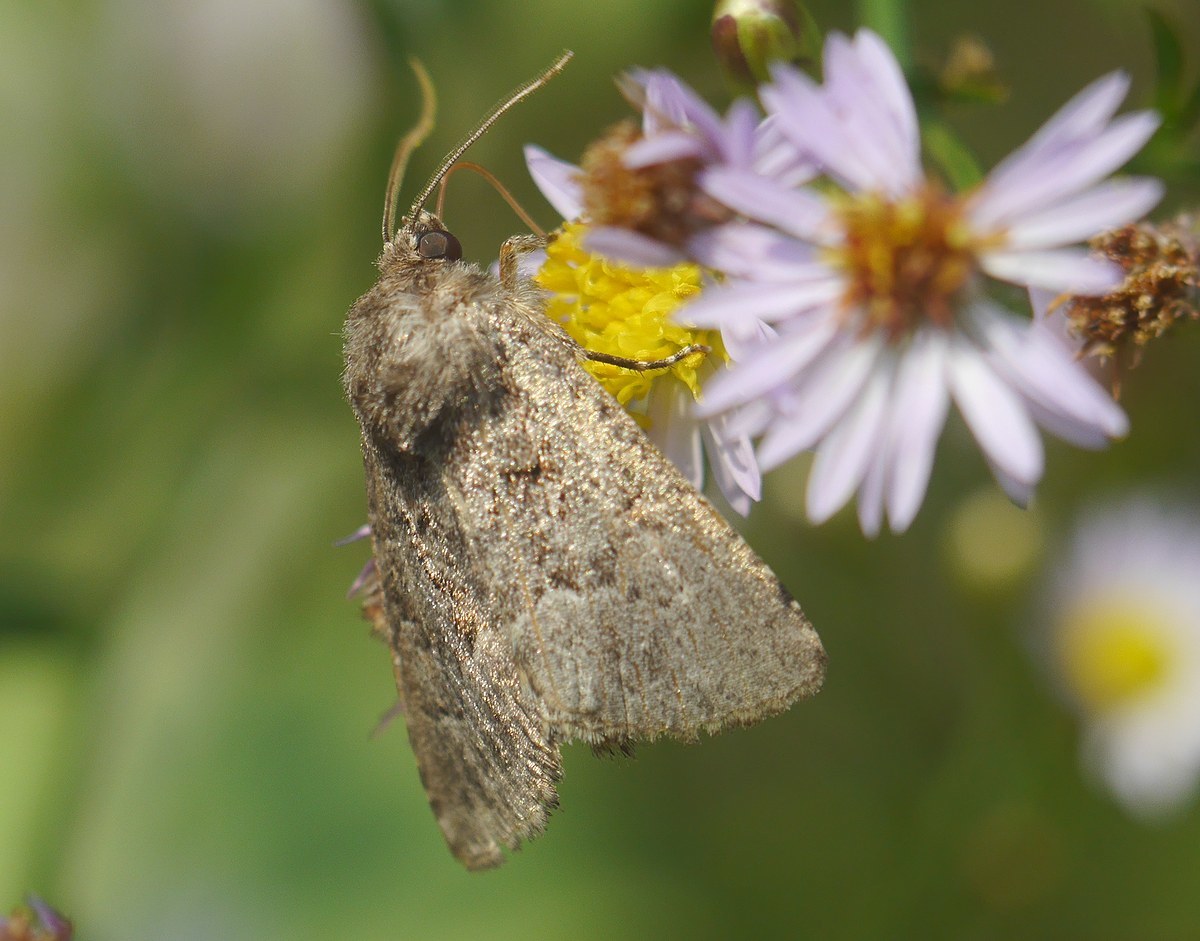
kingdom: Animalia
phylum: Arthropoda
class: Insecta
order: Lepidoptera
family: Noctuidae
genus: Thalpophila
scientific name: Thalpophila matura
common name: Straw underwing
